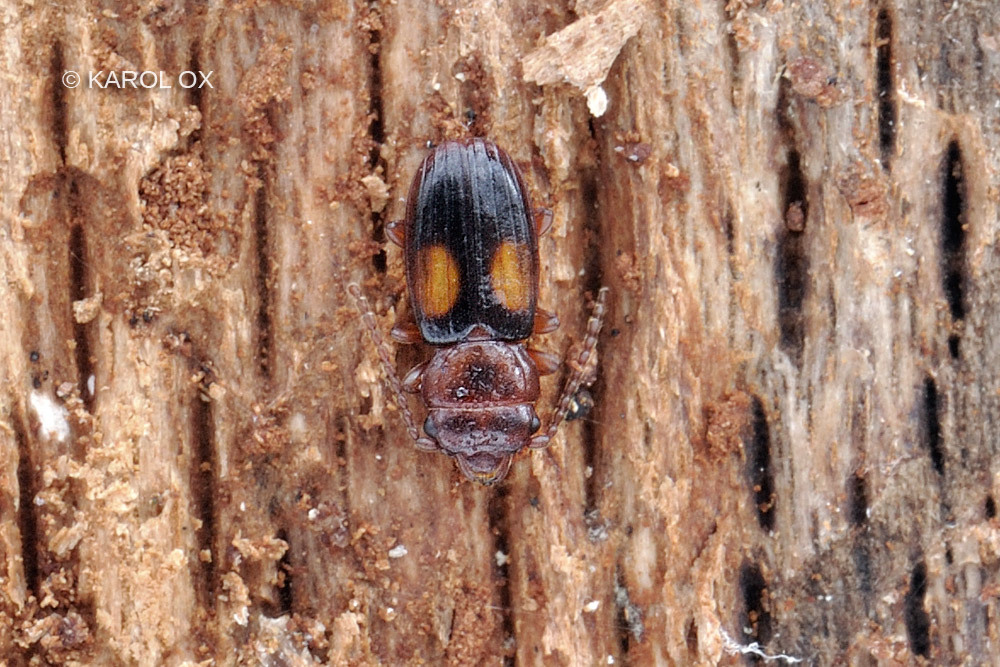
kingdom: Animalia
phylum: Arthropoda
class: Insecta
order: Coleoptera
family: Laemophloeidae
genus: Laemophloeus
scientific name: Laemophloeus monilis
